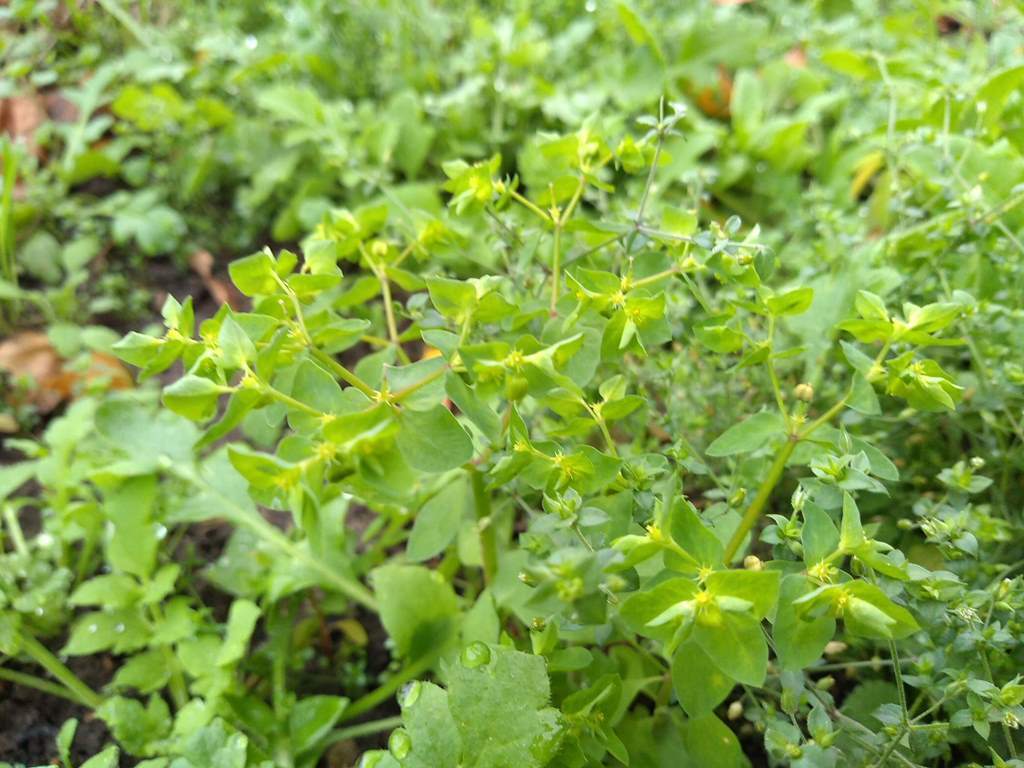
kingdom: Plantae
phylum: Tracheophyta
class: Magnoliopsida
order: Malpighiales
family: Euphorbiaceae
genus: Euphorbia
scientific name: Euphorbia peplus
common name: Petty spurge
